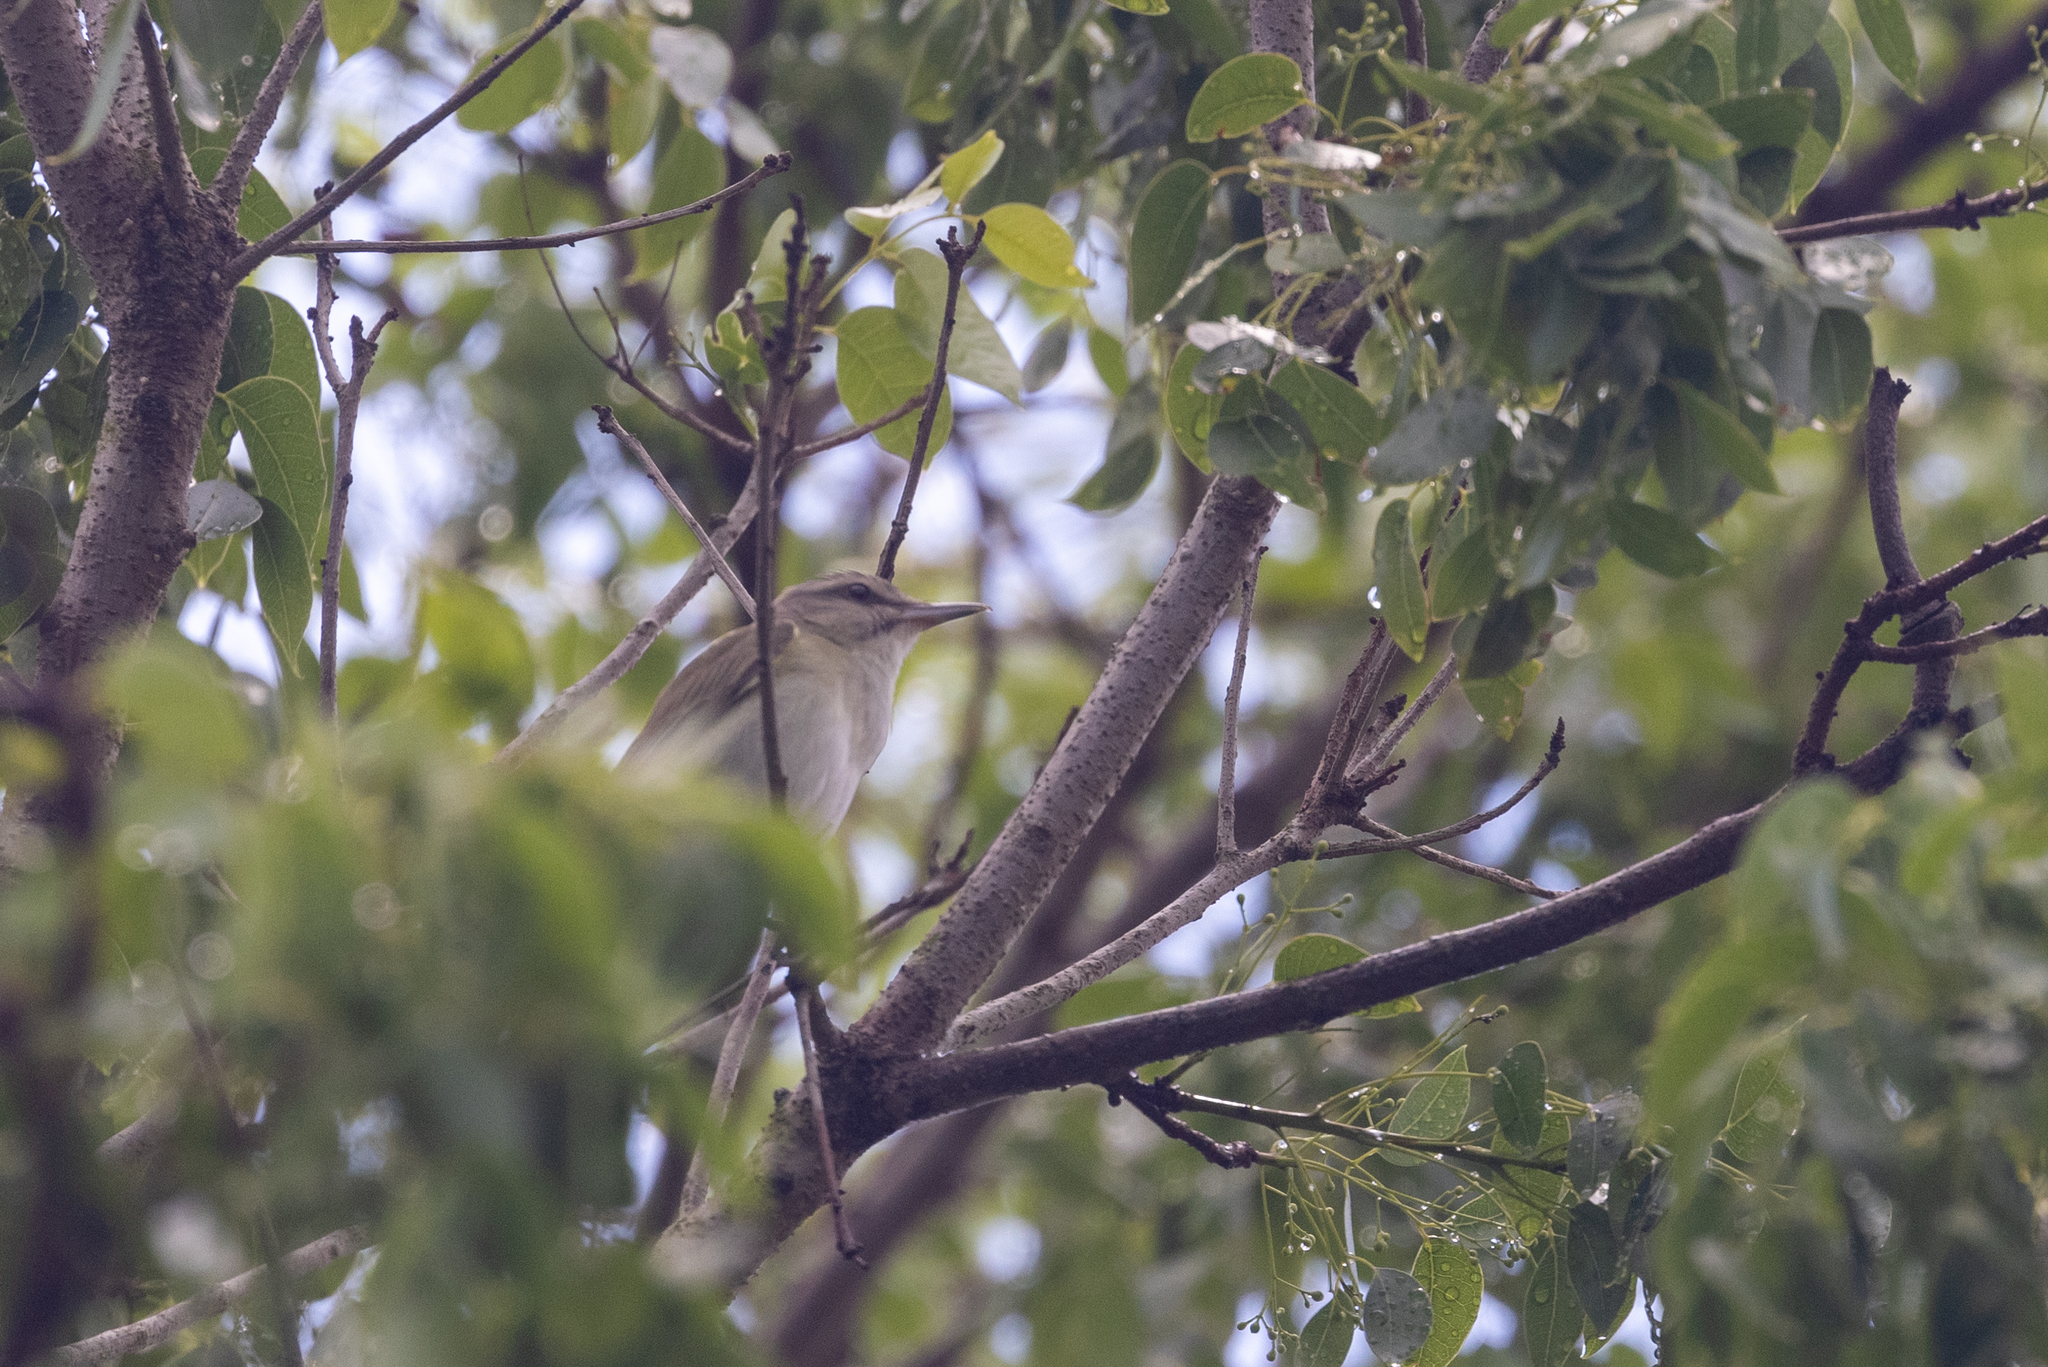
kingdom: Animalia
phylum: Chordata
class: Aves
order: Passeriformes
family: Vireonidae
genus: Vireo
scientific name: Vireo altiloquus
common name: Black-whiskered vireo
